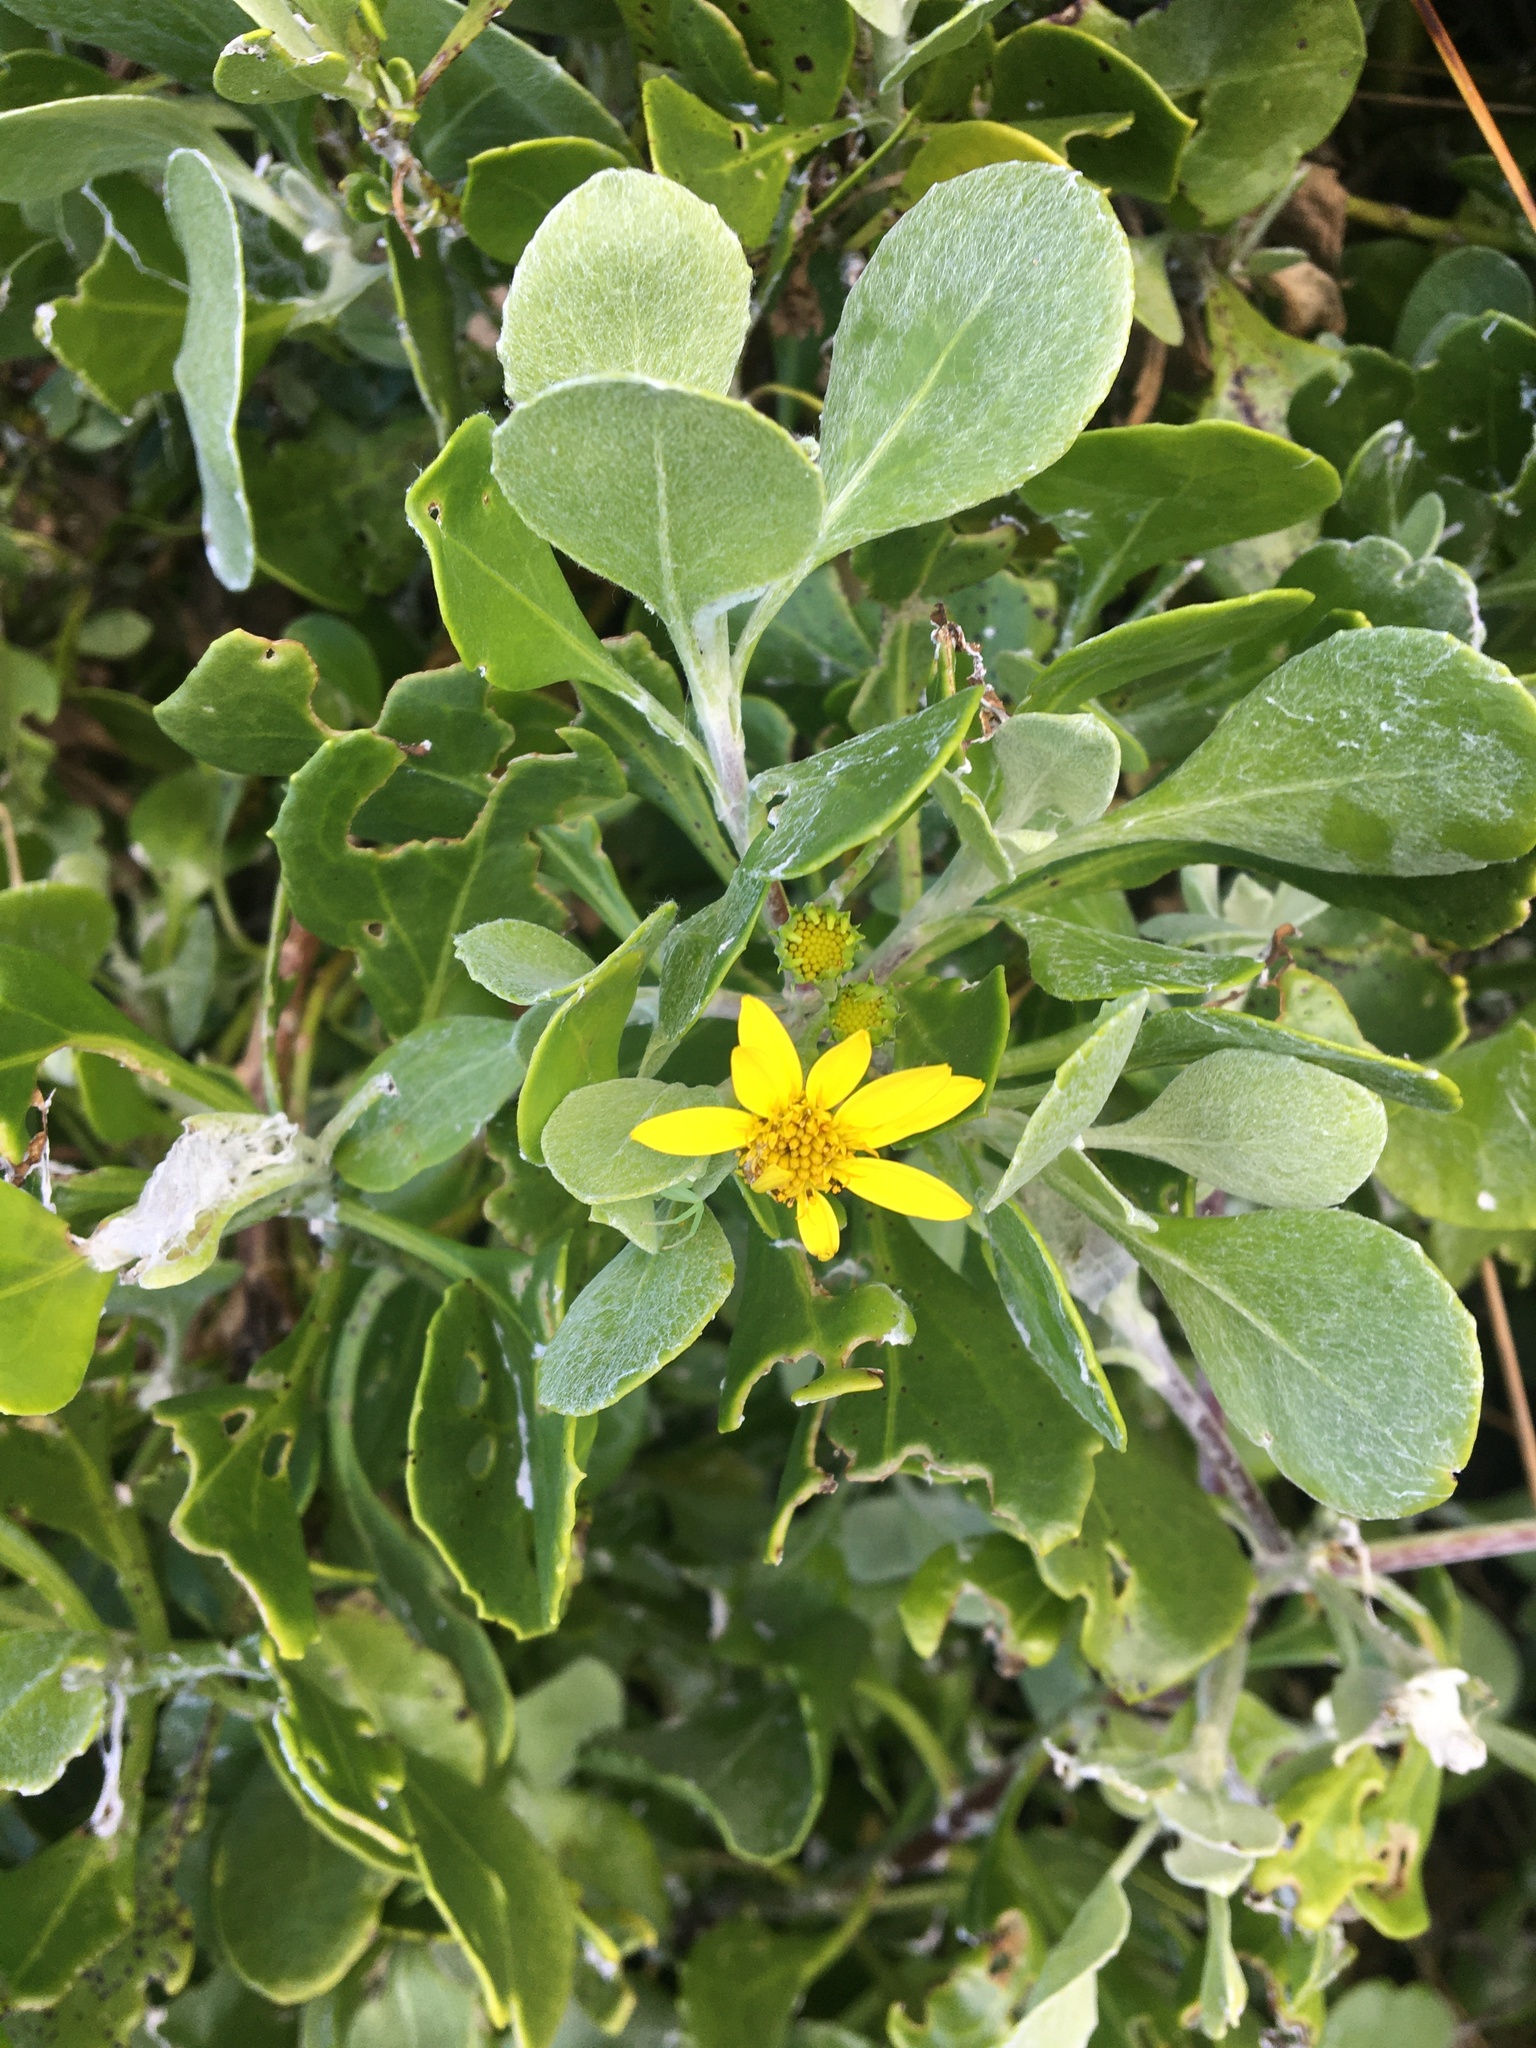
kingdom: Plantae
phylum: Tracheophyta
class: Magnoliopsida
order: Asterales
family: Asteraceae
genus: Osteospermum
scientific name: Osteospermum moniliferum
